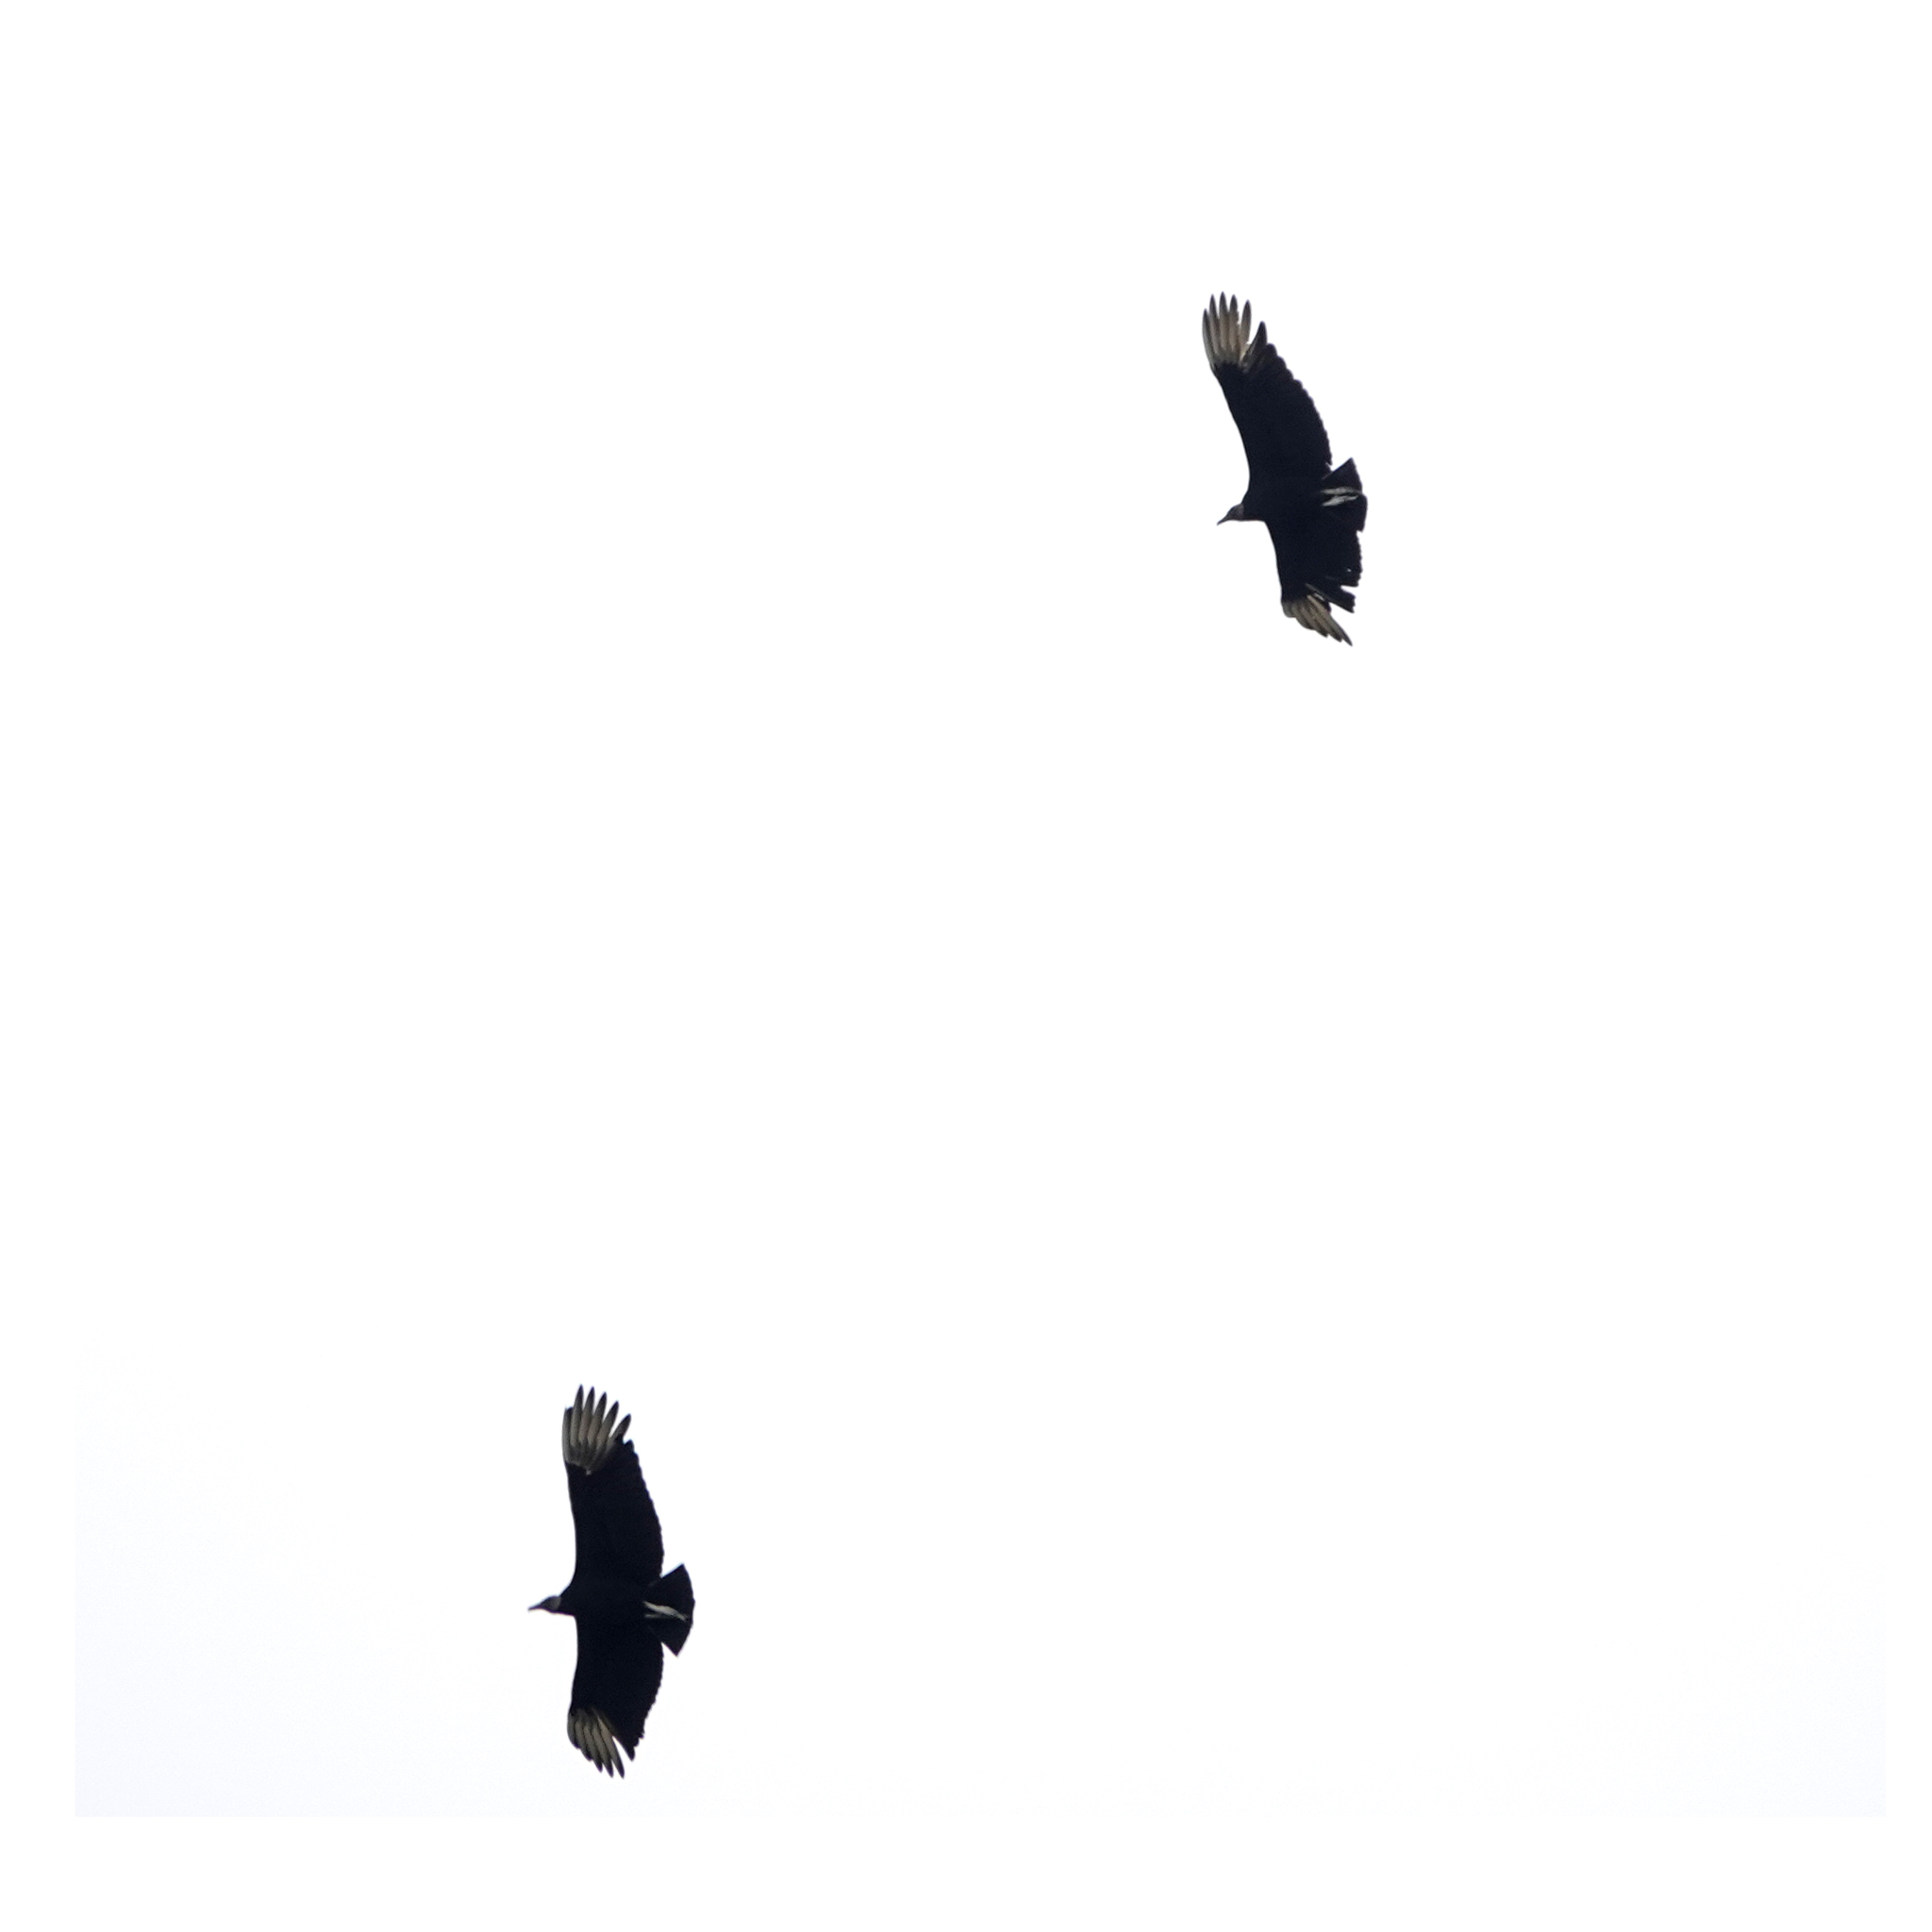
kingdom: Animalia
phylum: Chordata
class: Aves
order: Accipitriformes
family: Cathartidae
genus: Coragyps
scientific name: Coragyps atratus
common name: Black vulture
